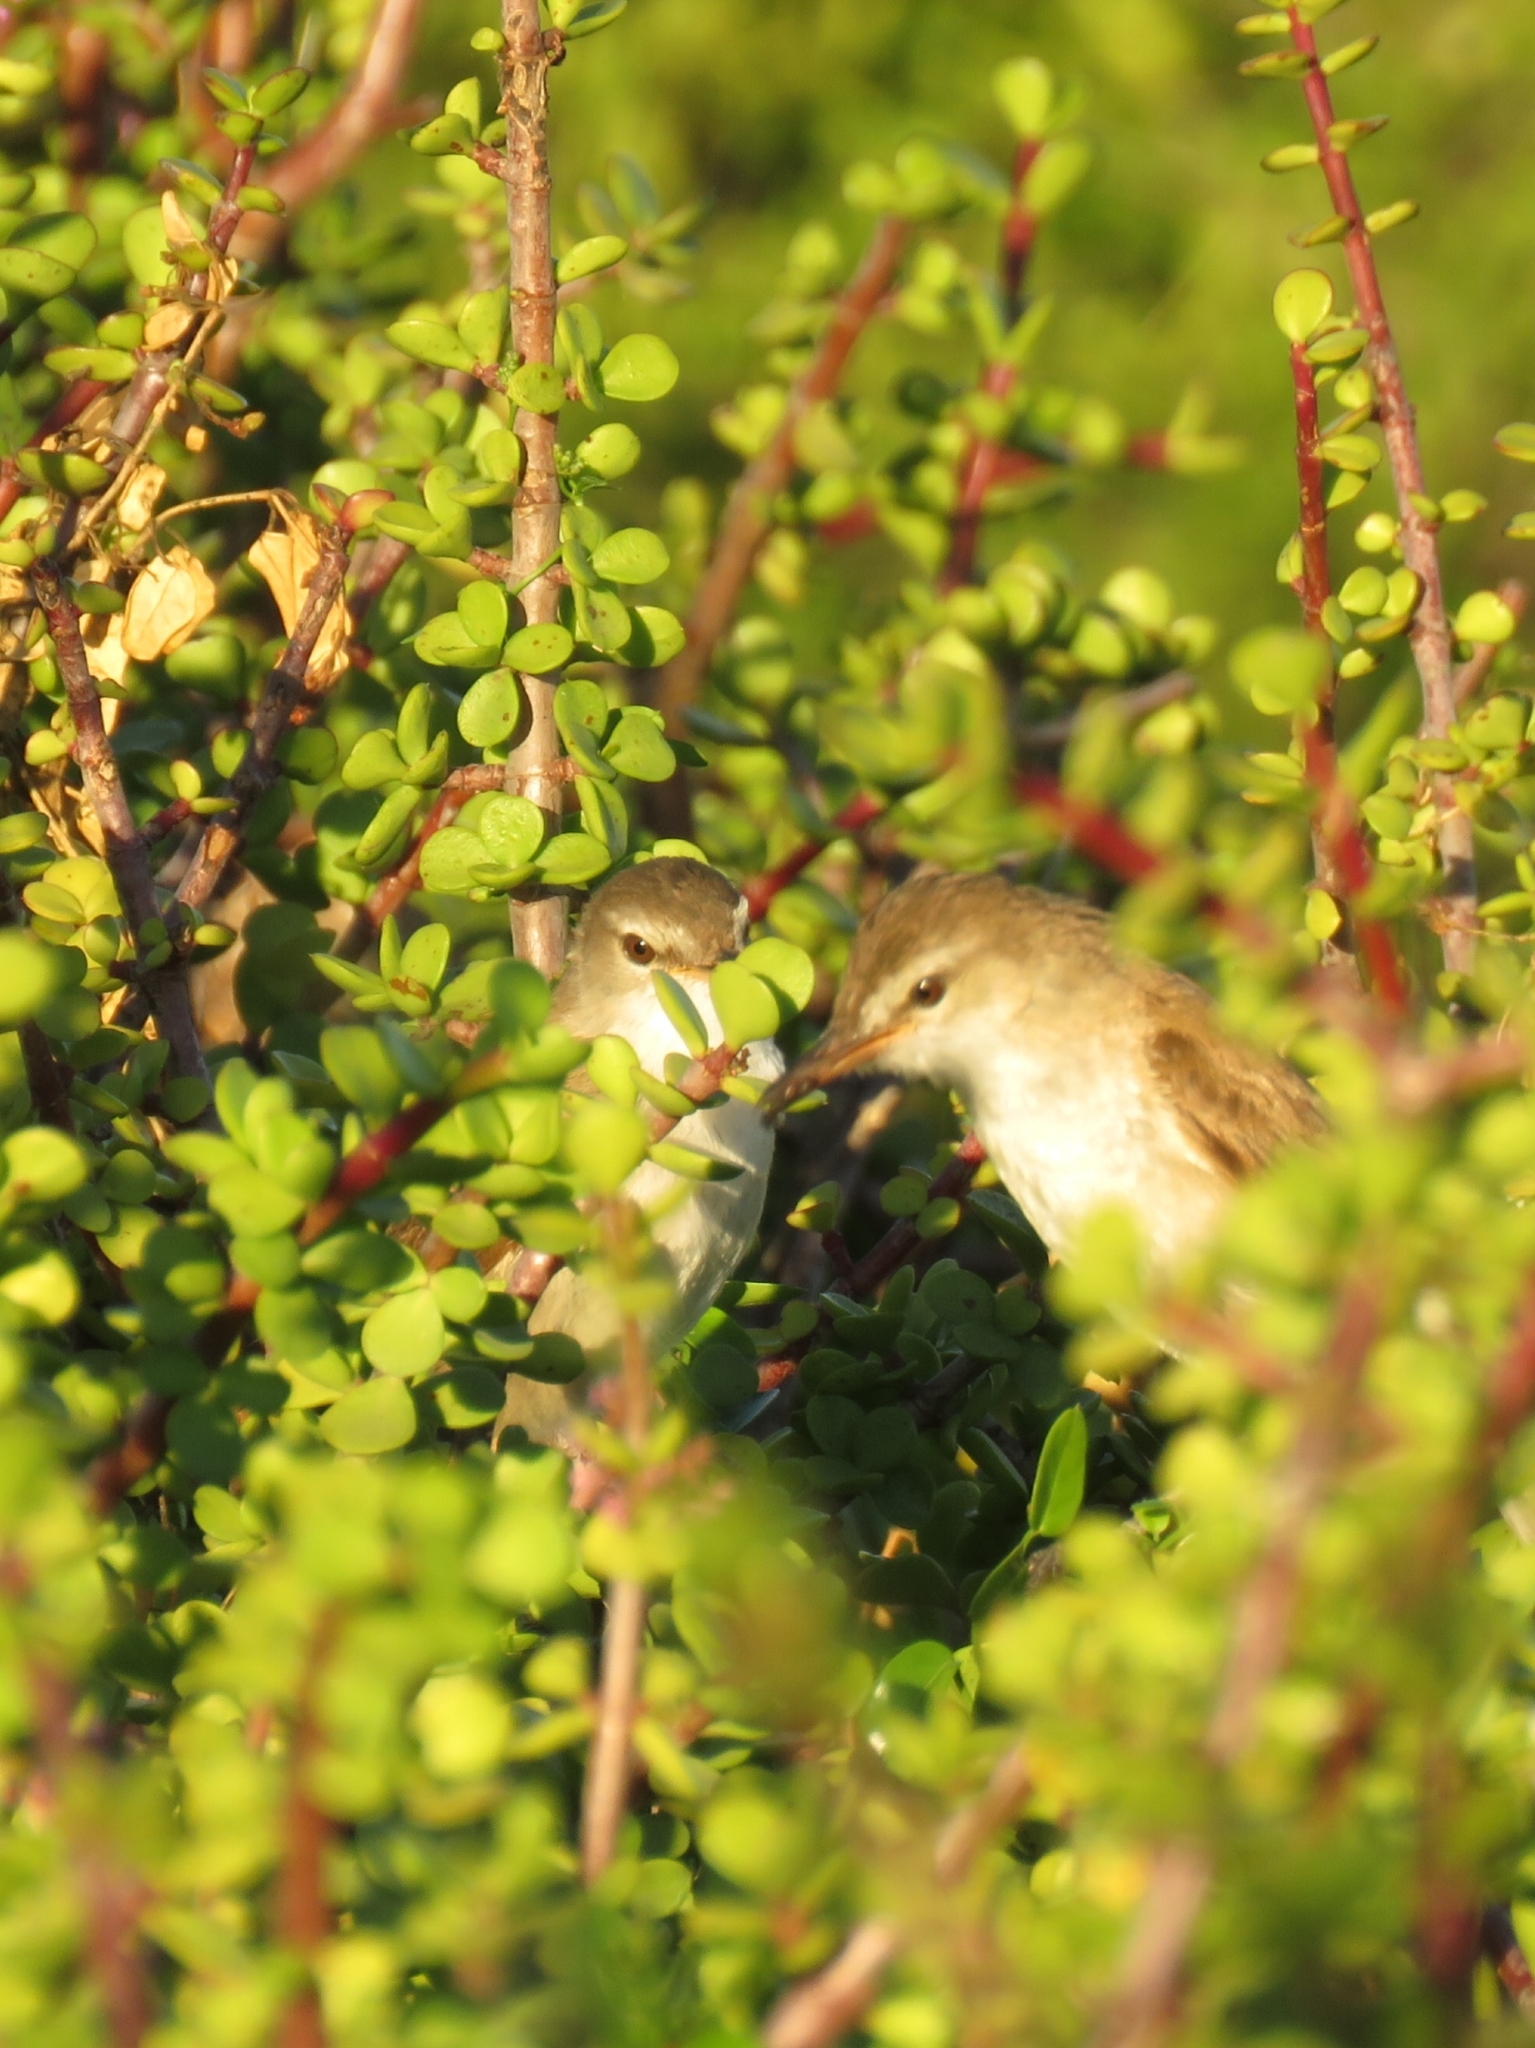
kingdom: Animalia
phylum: Chordata
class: Aves
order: Passeriformes
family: Acrocephalidae
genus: Acrocephalus
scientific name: Acrocephalus gracilirostris
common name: Lesser swamp warbler
